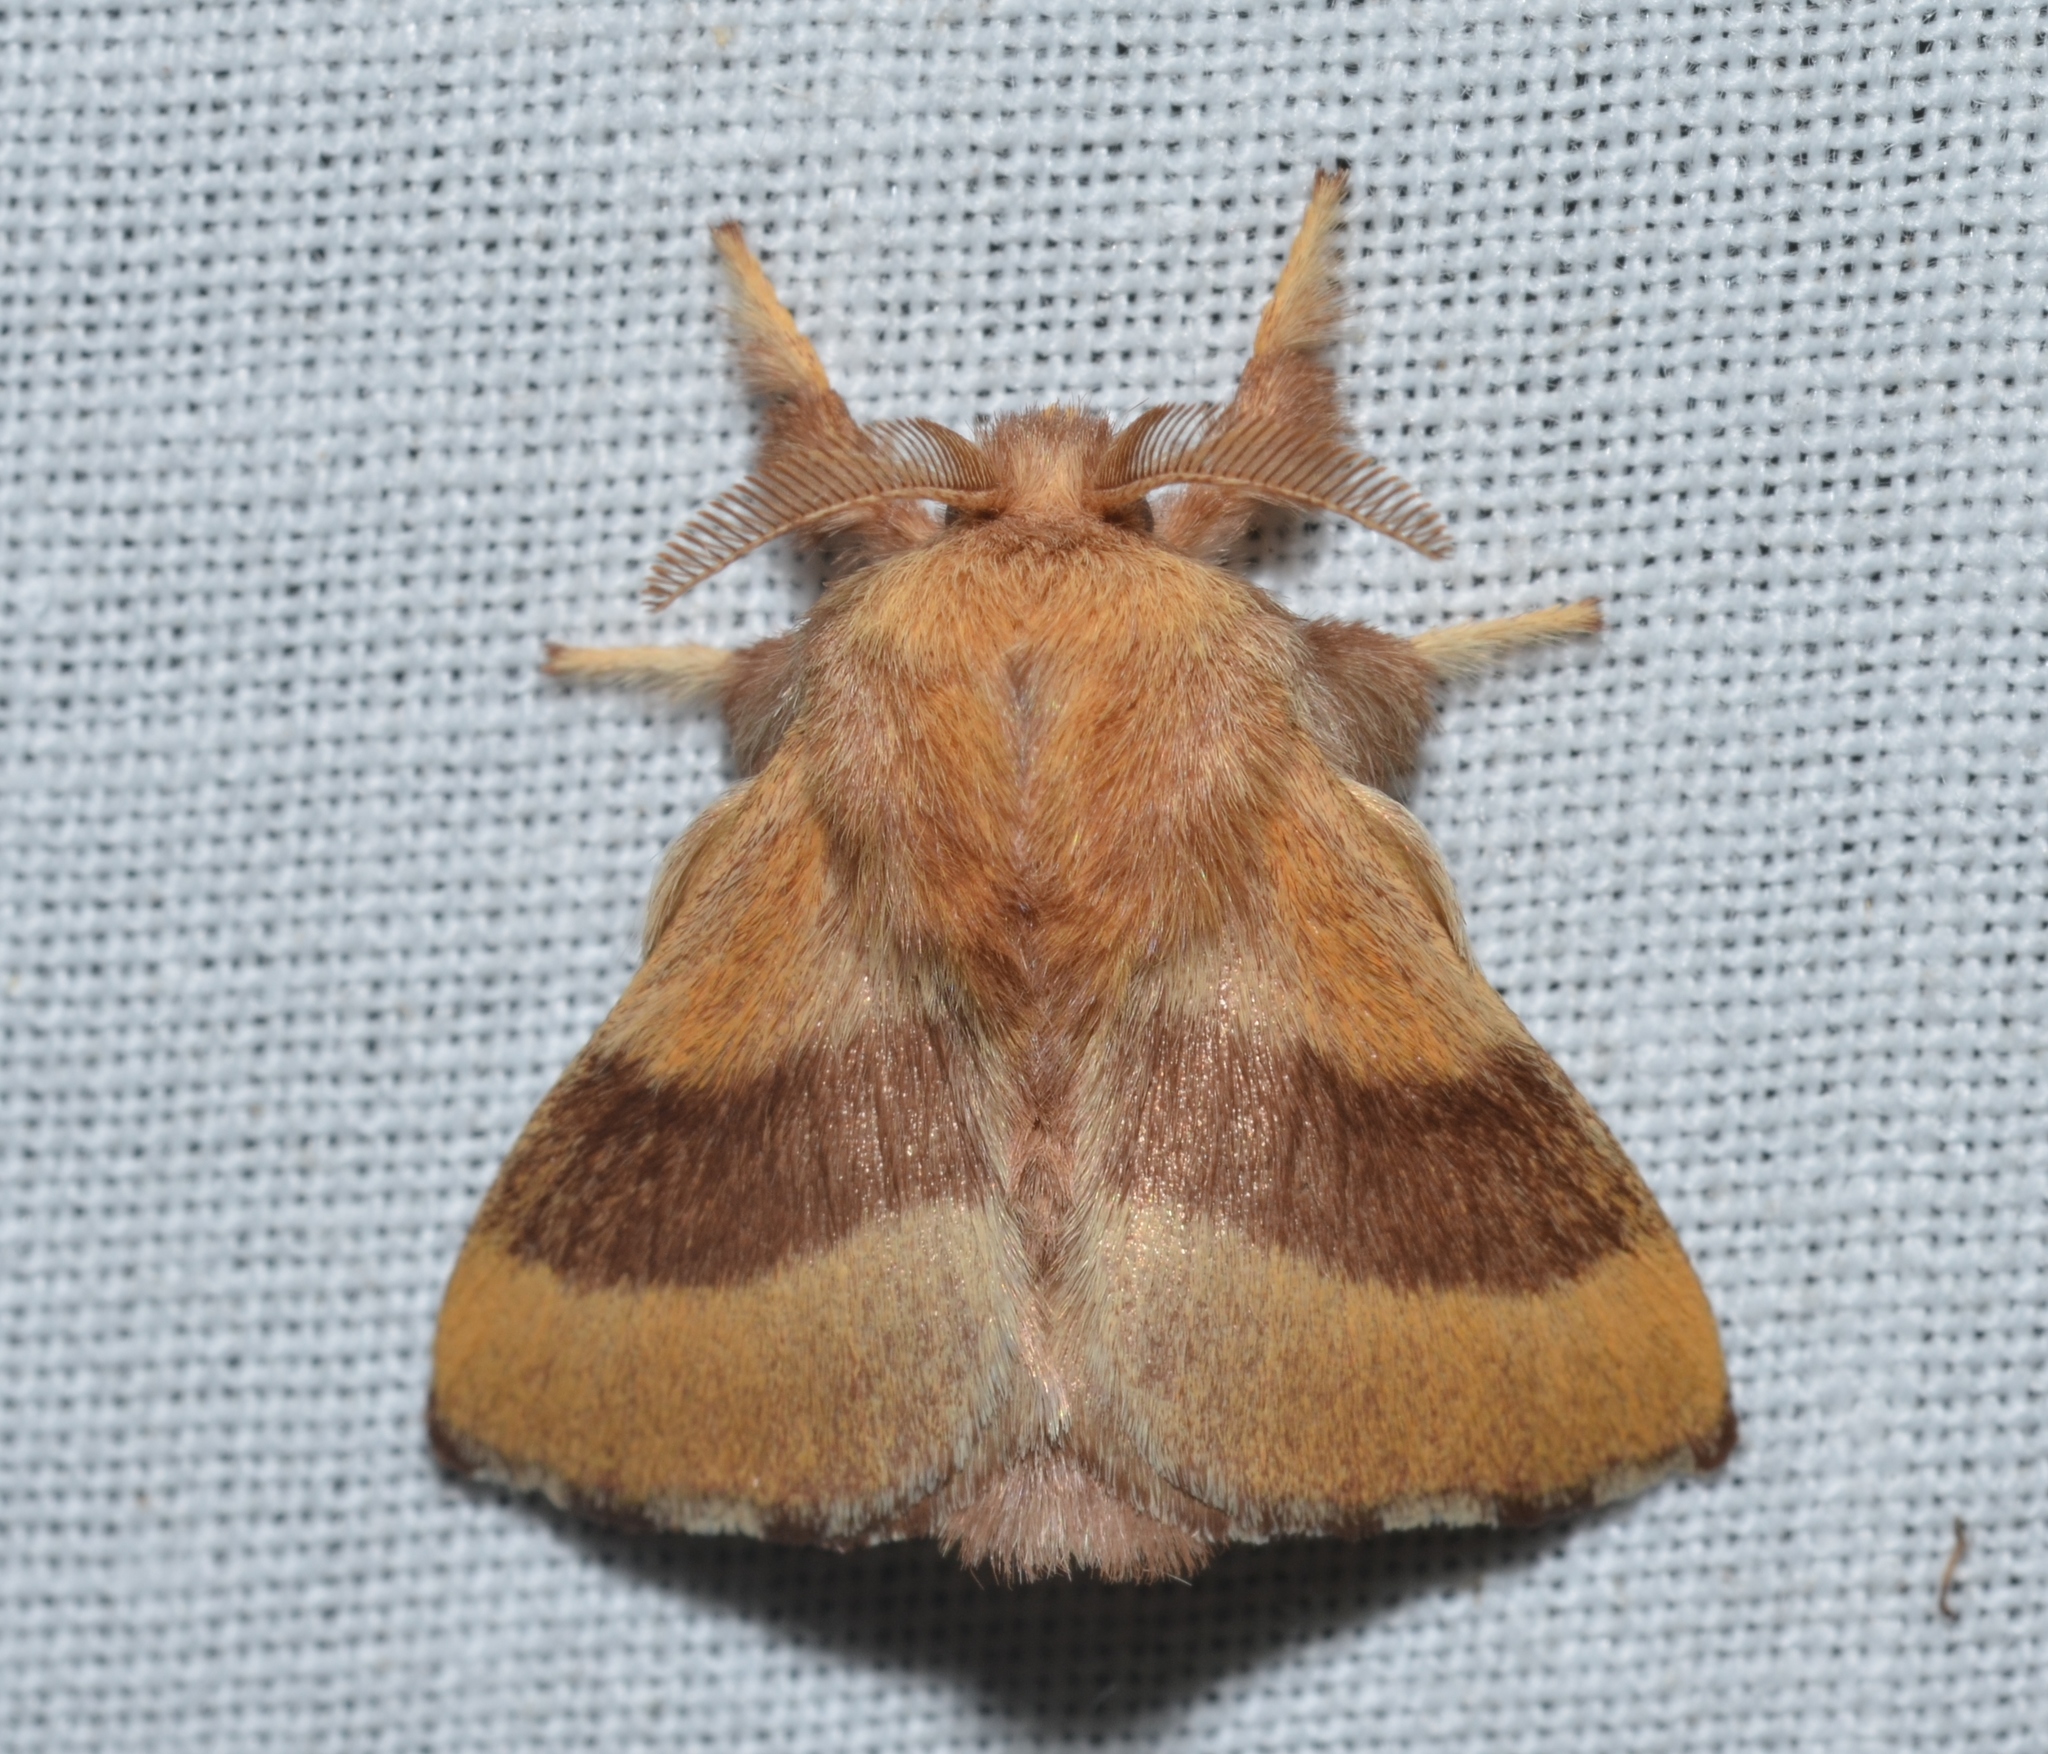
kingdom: Animalia
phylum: Arthropoda
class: Insecta
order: Lepidoptera
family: Lasiocampidae
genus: Malacosoma
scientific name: Malacosoma disstria
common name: Forest tent caterpillar
